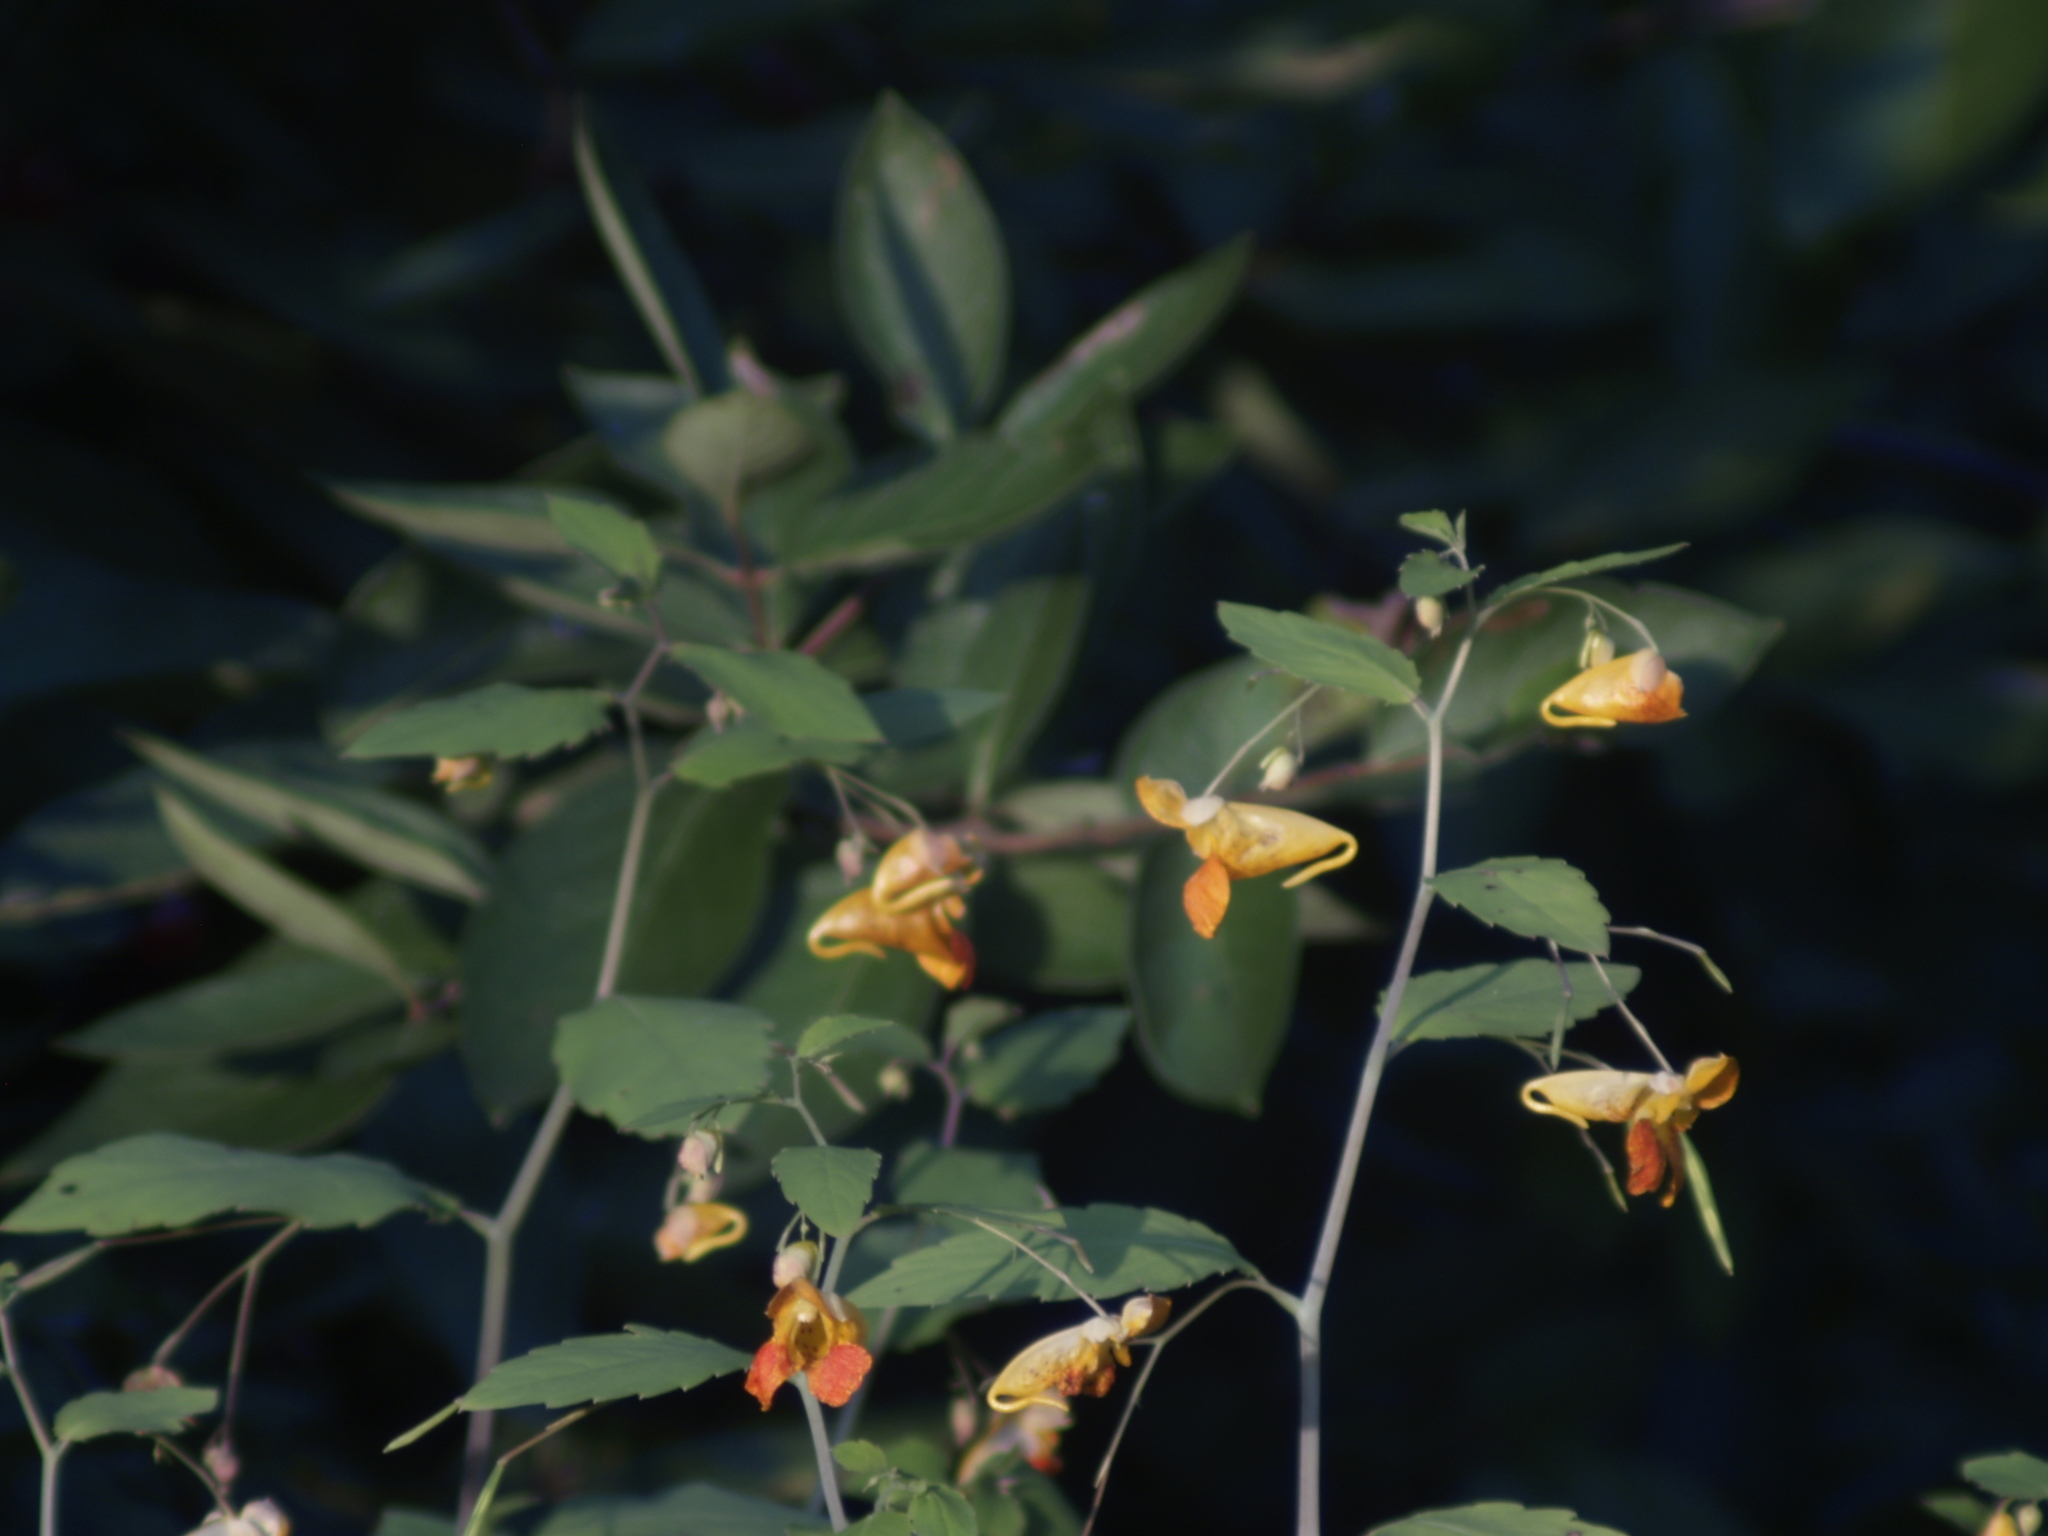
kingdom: Plantae
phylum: Tracheophyta
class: Magnoliopsida
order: Ericales
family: Balsaminaceae
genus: Impatiens
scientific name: Impatiens capensis
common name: Orange balsam
